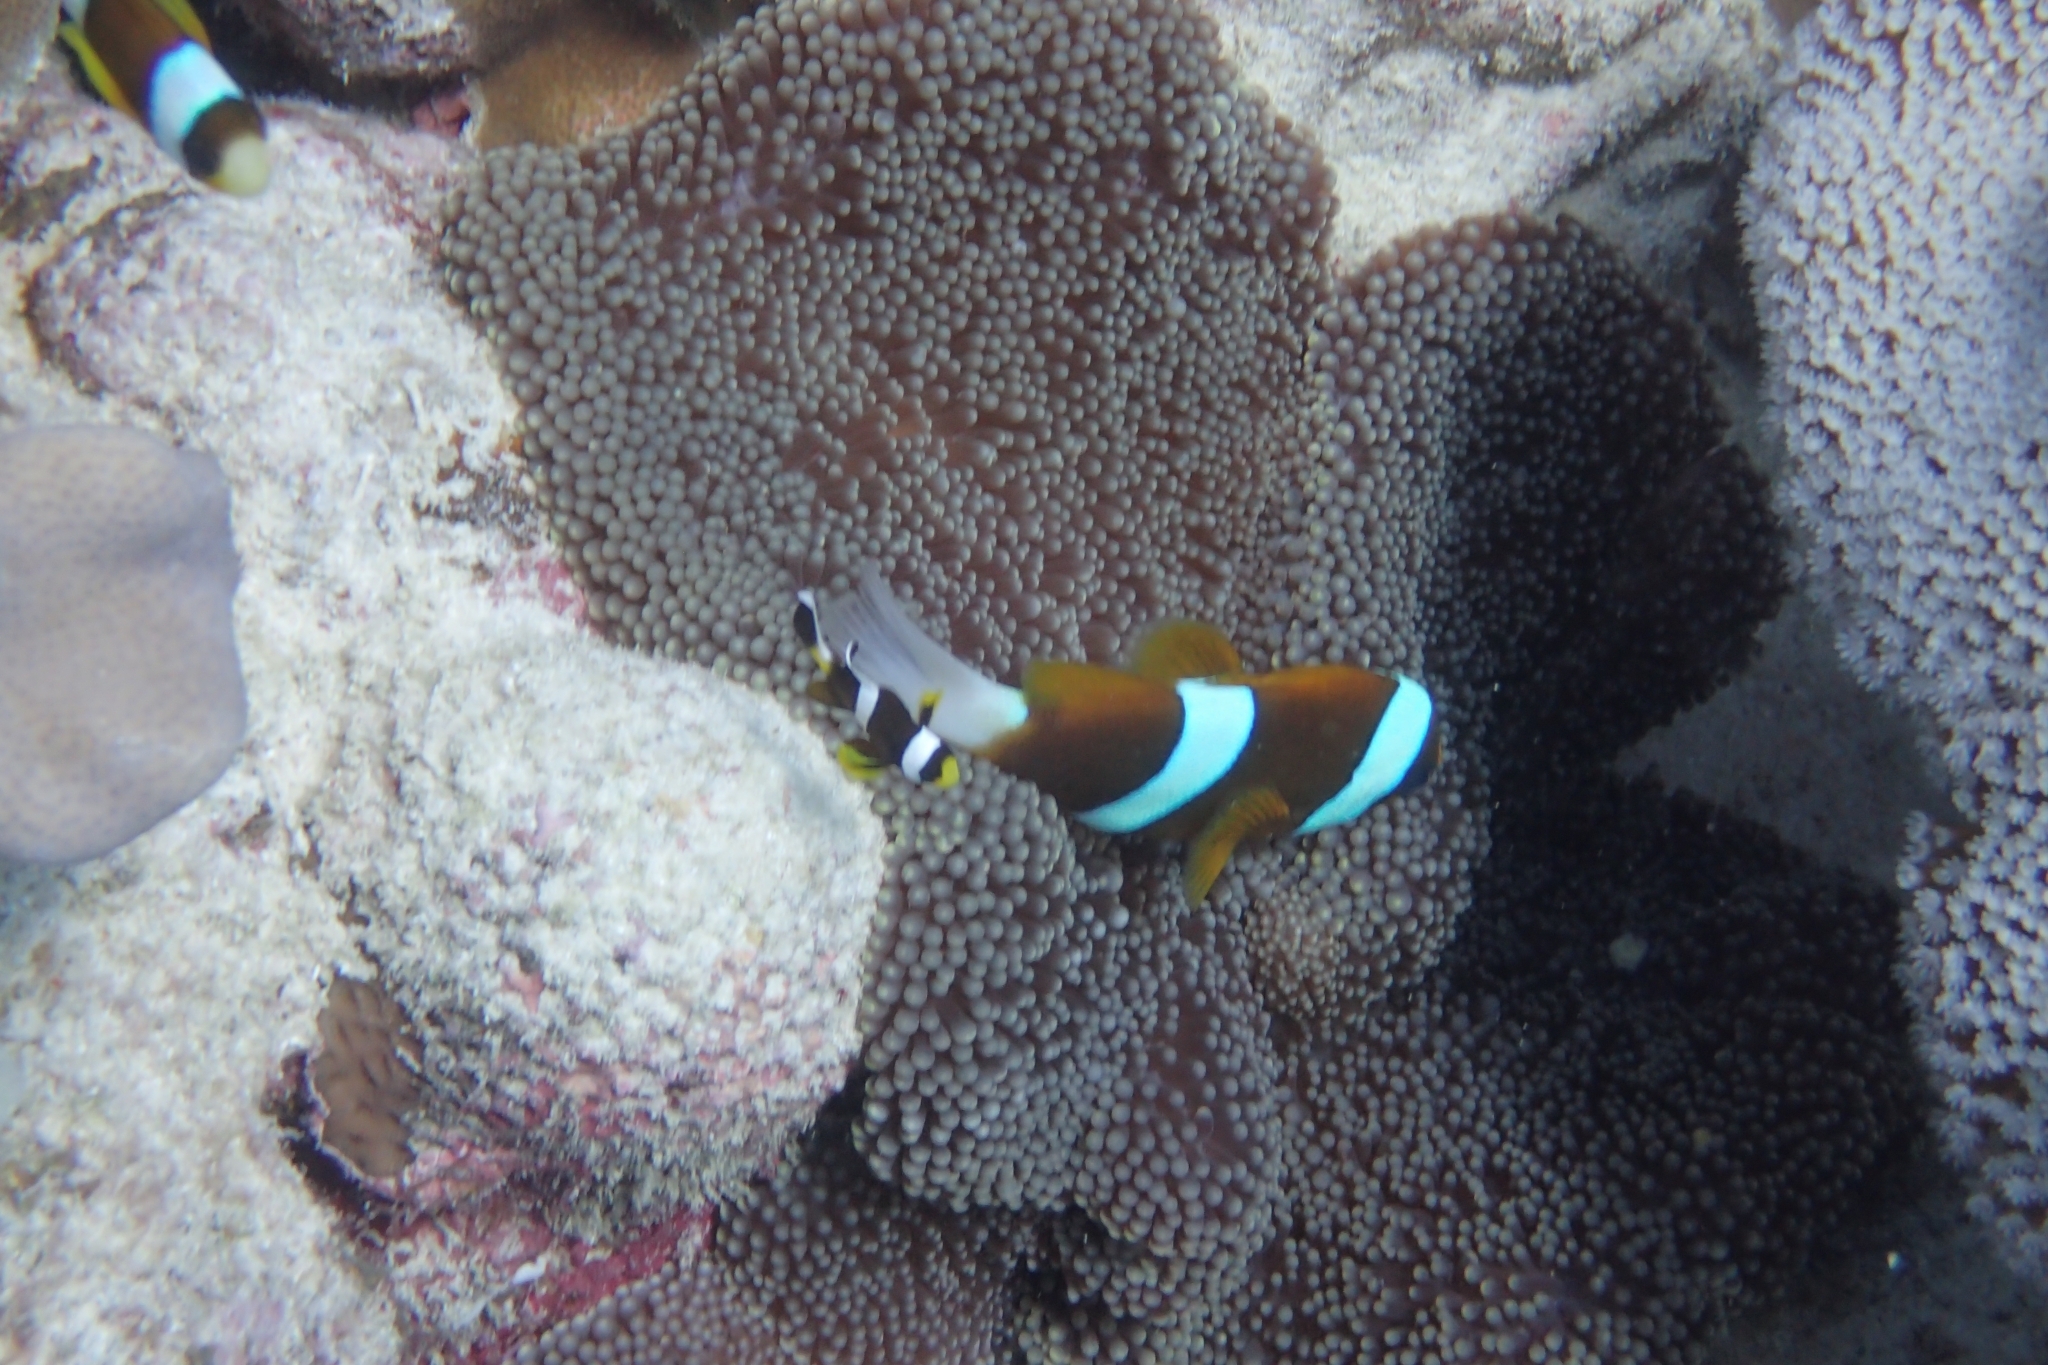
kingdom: Animalia
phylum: Chordata
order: Perciformes
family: Pomacentridae
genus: Amphiprion
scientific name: Amphiprion clarkii
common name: Clark's anemonefish
